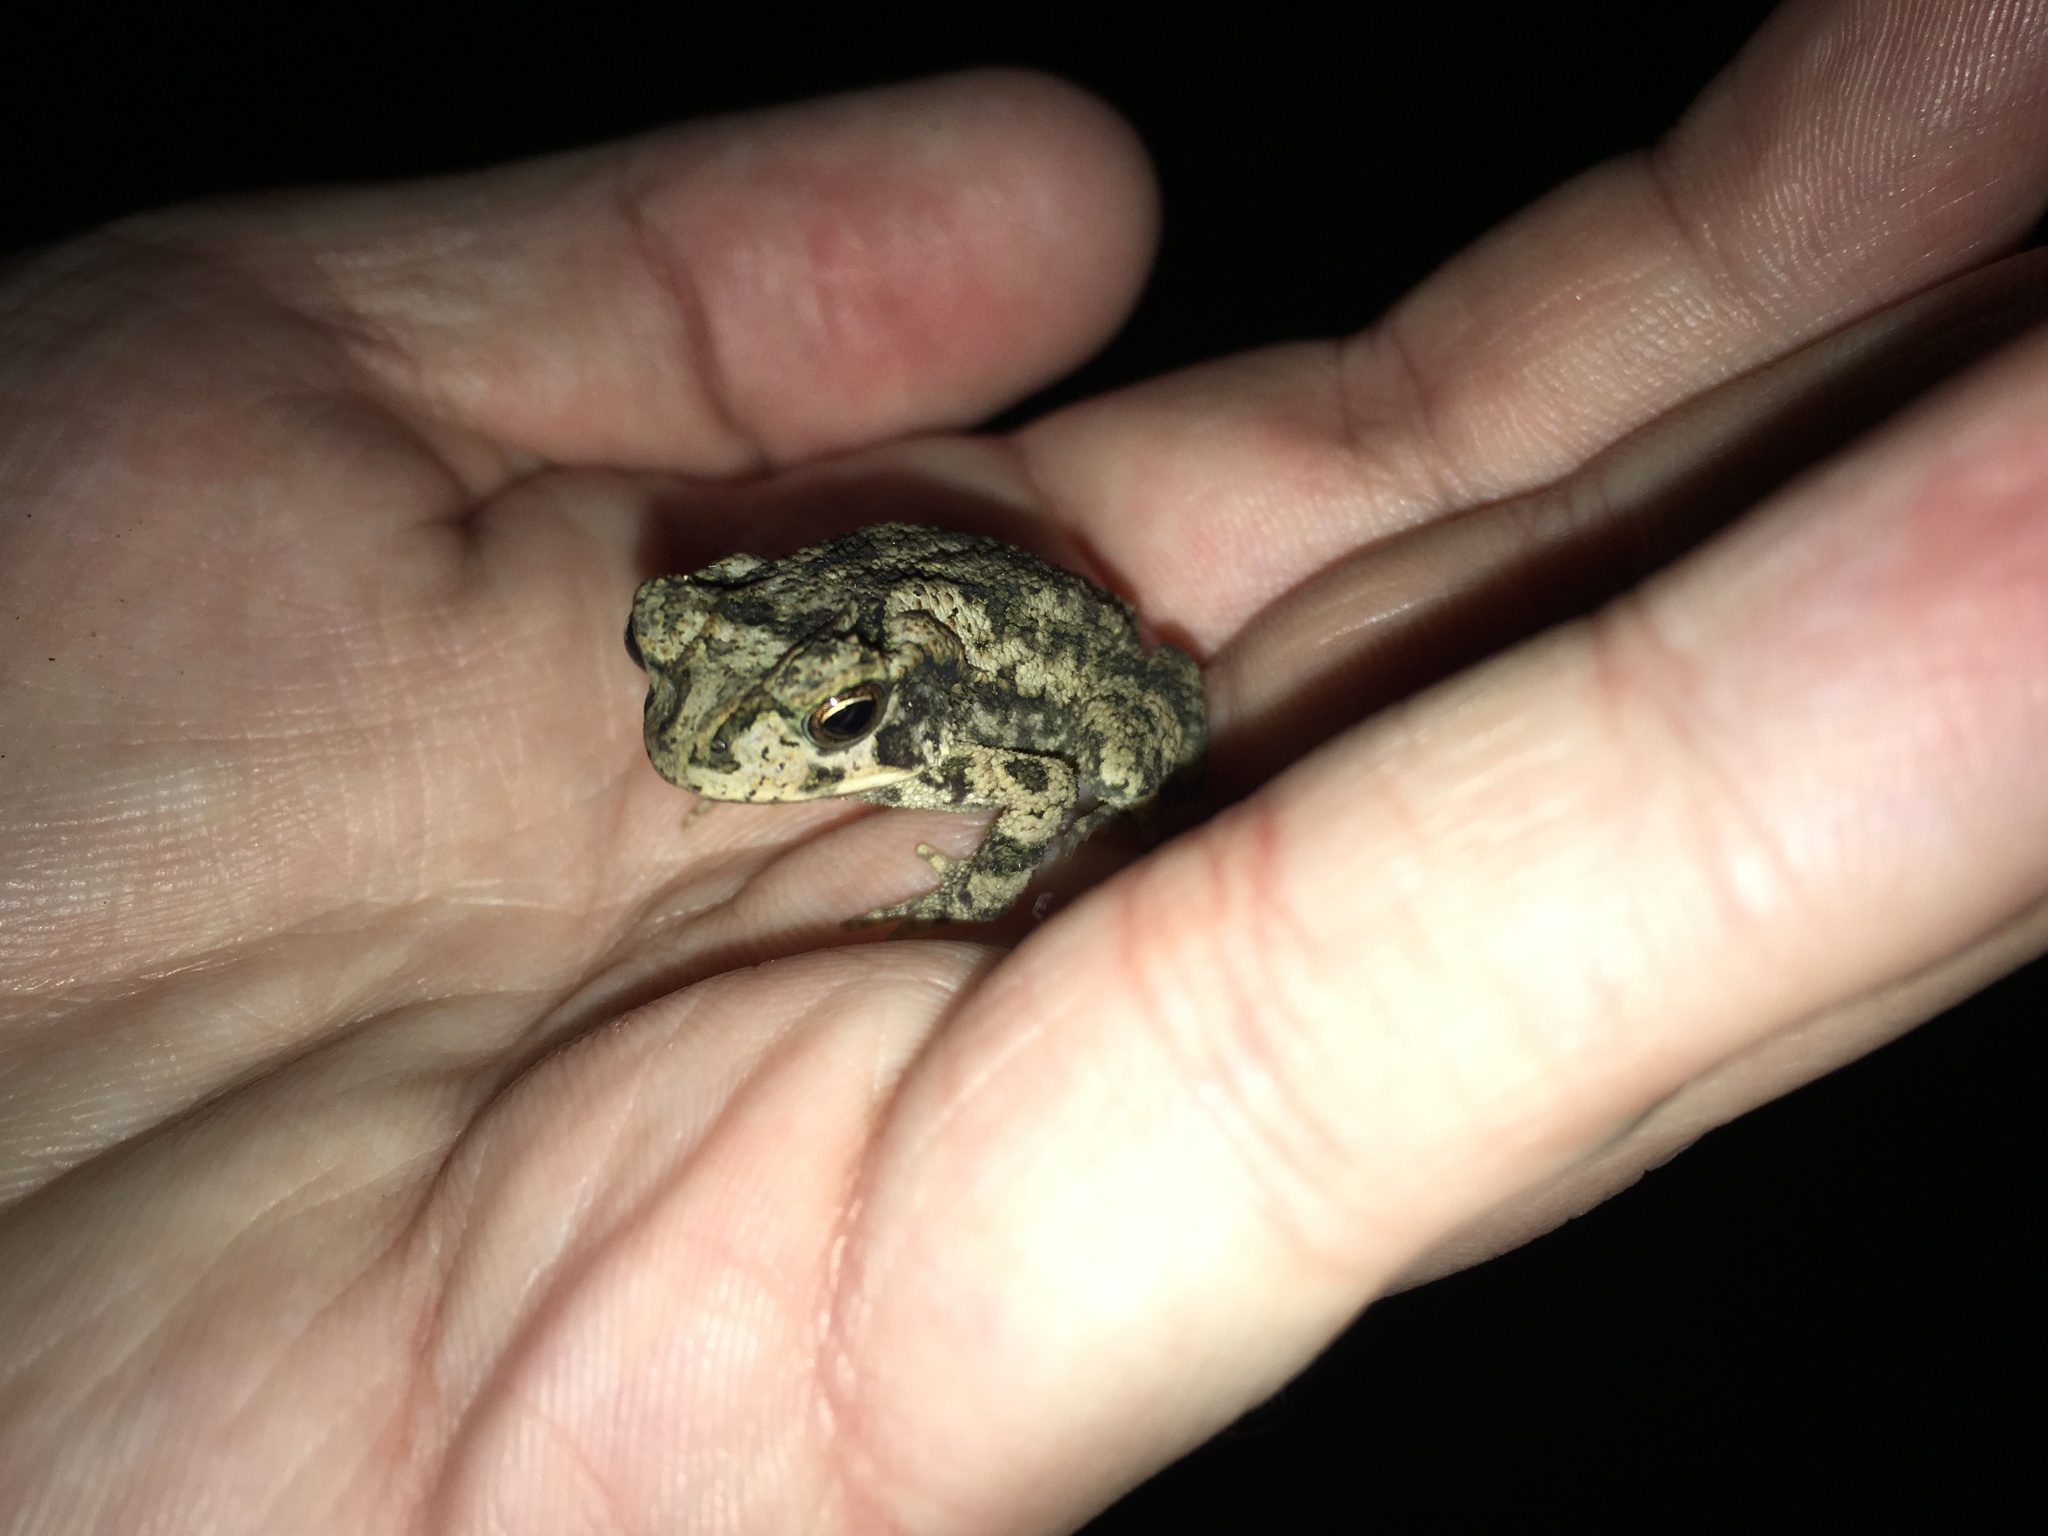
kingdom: Animalia
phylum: Chordata
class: Amphibia
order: Anura
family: Bufonidae
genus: Incilius
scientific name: Incilius nebulifer
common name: Gulf coast toad
